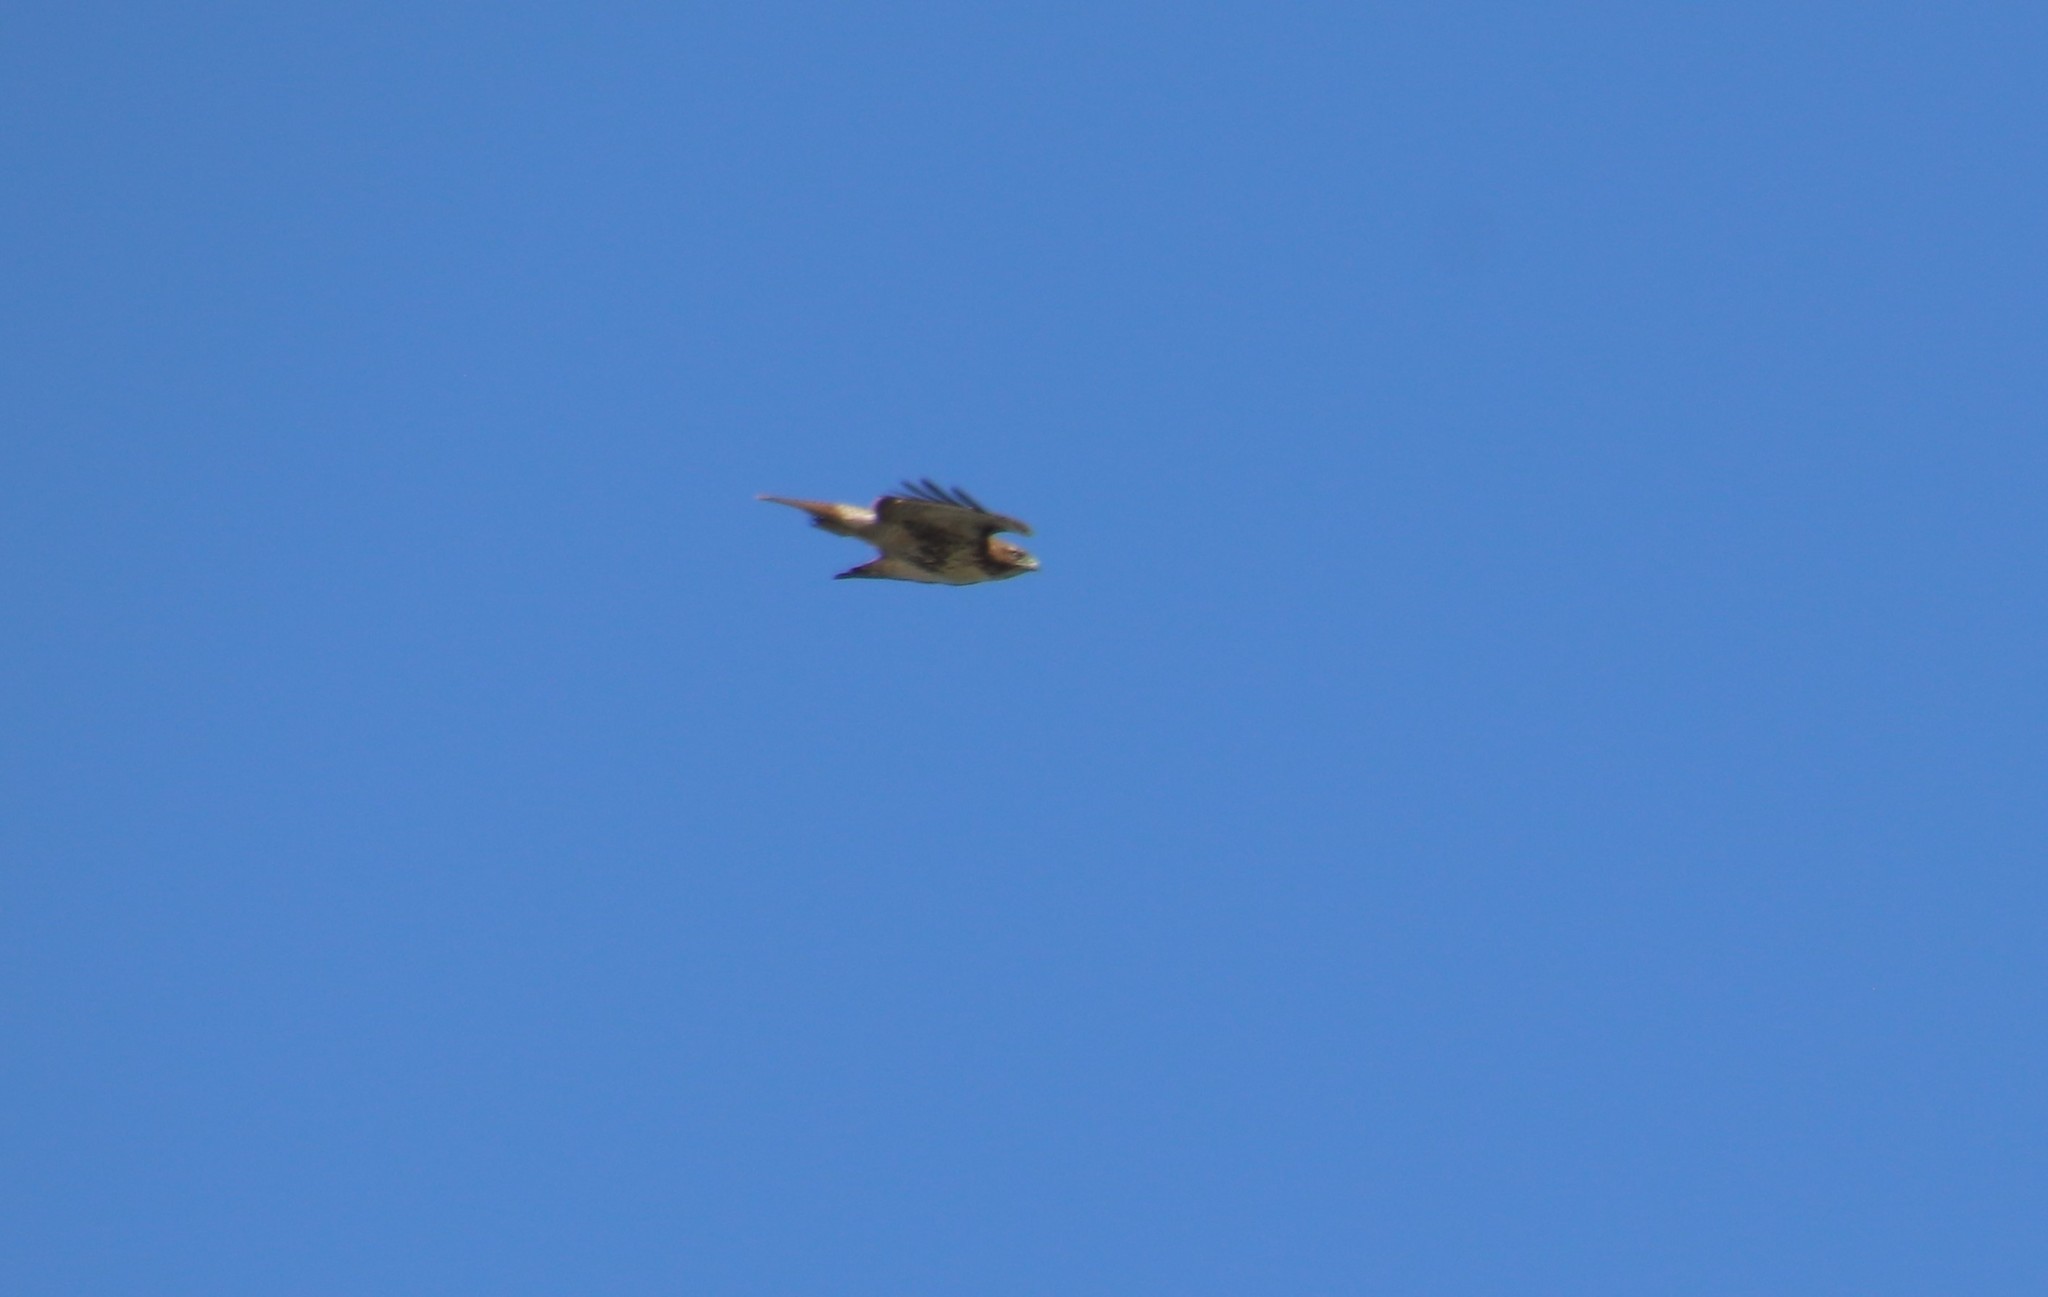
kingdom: Animalia
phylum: Chordata
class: Aves
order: Accipitriformes
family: Accipitridae
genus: Buteo
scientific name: Buteo jamaicensis
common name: Red-tailed hawk
